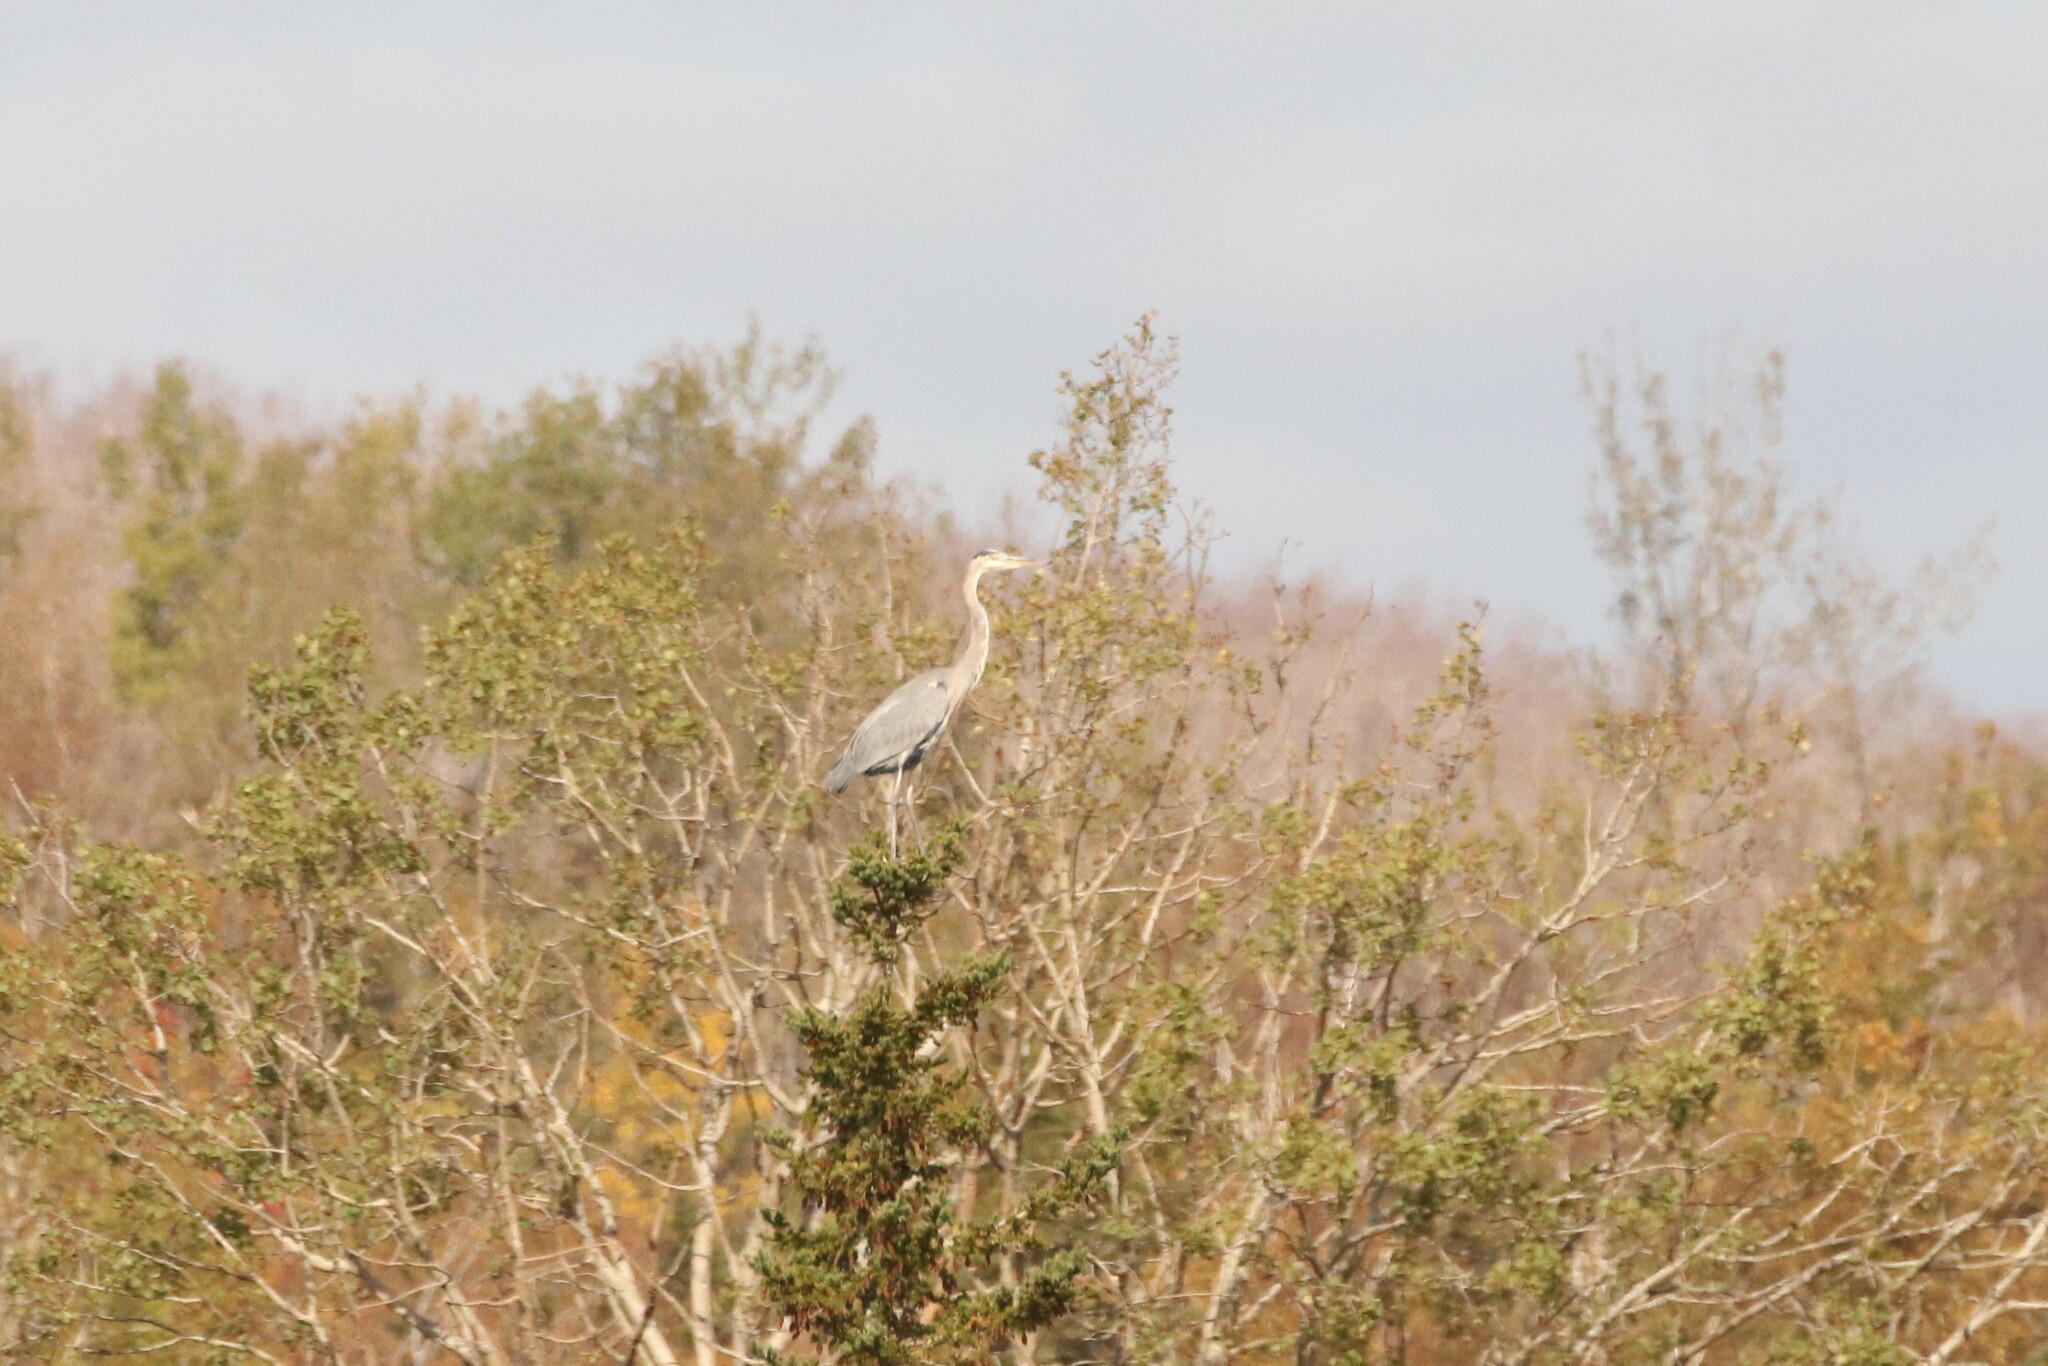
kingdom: Animalia
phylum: Chordata
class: Aves
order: Pelecaniformes
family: Ardeidae
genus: Ardea
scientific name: Ardea herodias
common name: Great blue heron
